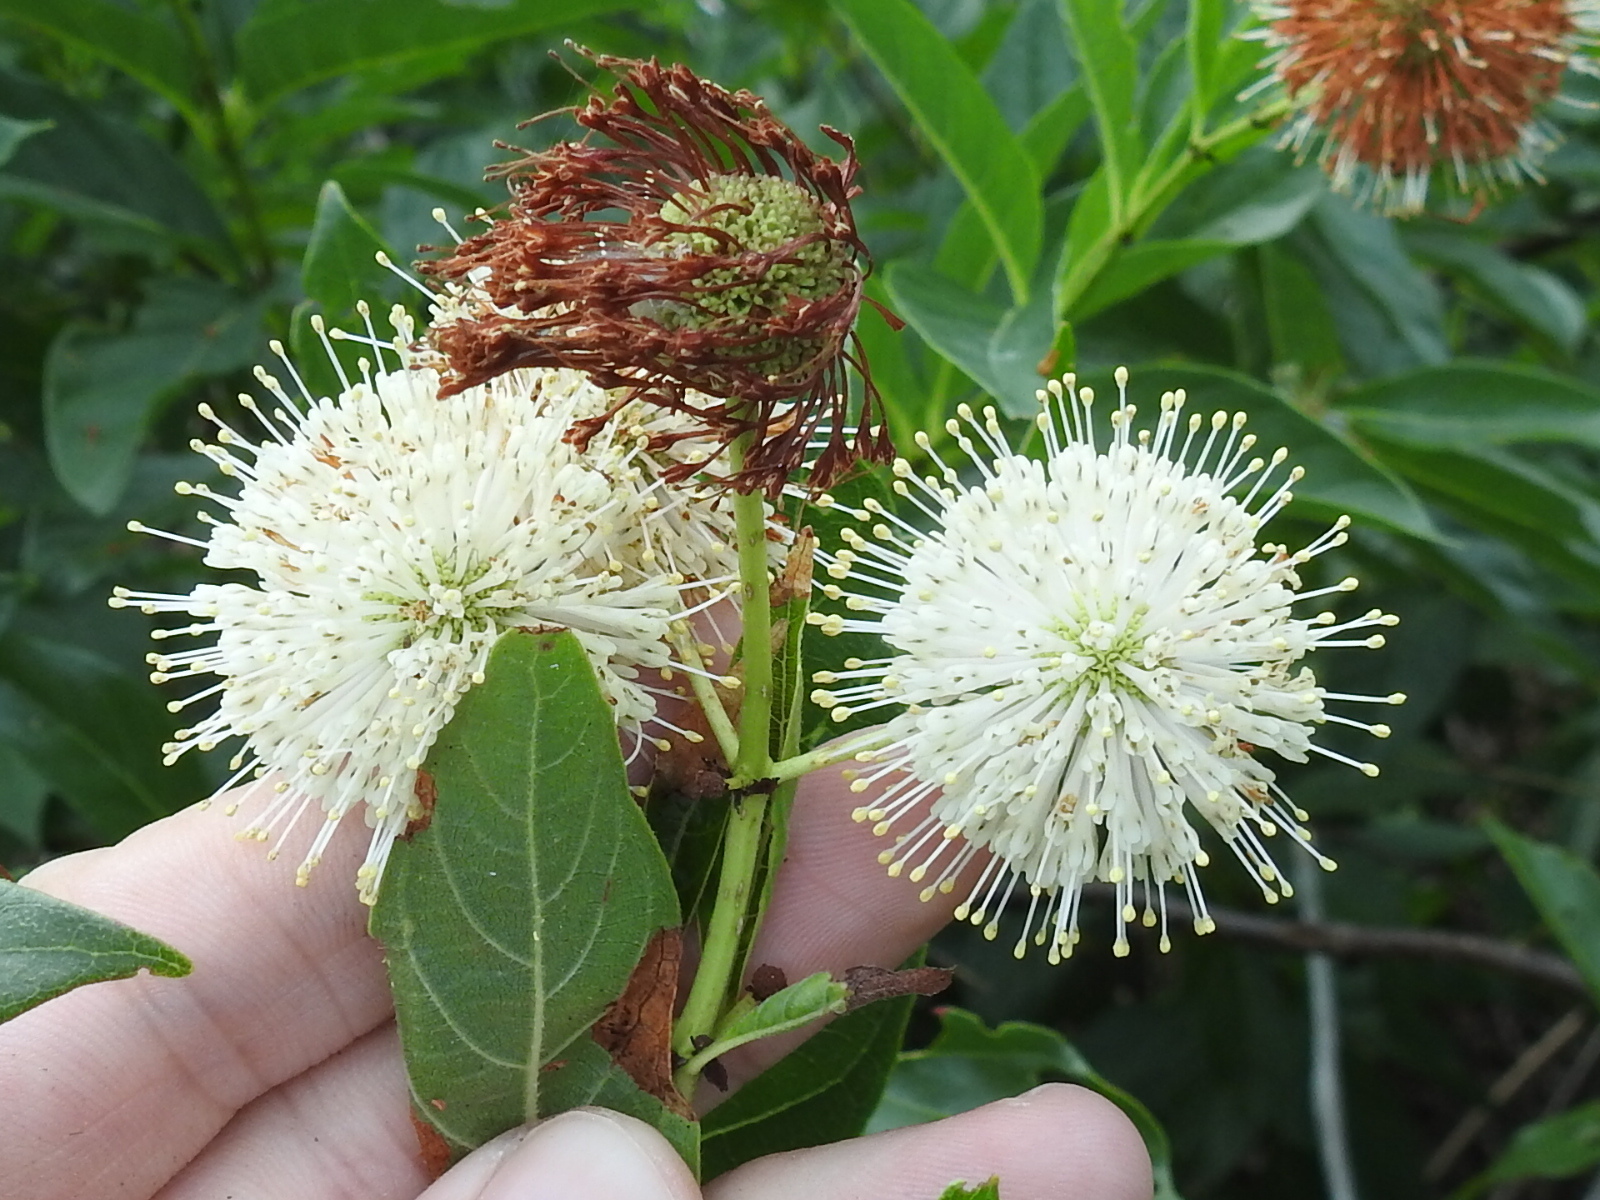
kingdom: Plantae
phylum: Tracheophyta
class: Magnoliopsida
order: Gentianales
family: Rubiaceae
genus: Cephalanthus
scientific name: Cephalanthus occidentalis
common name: Button-willow
